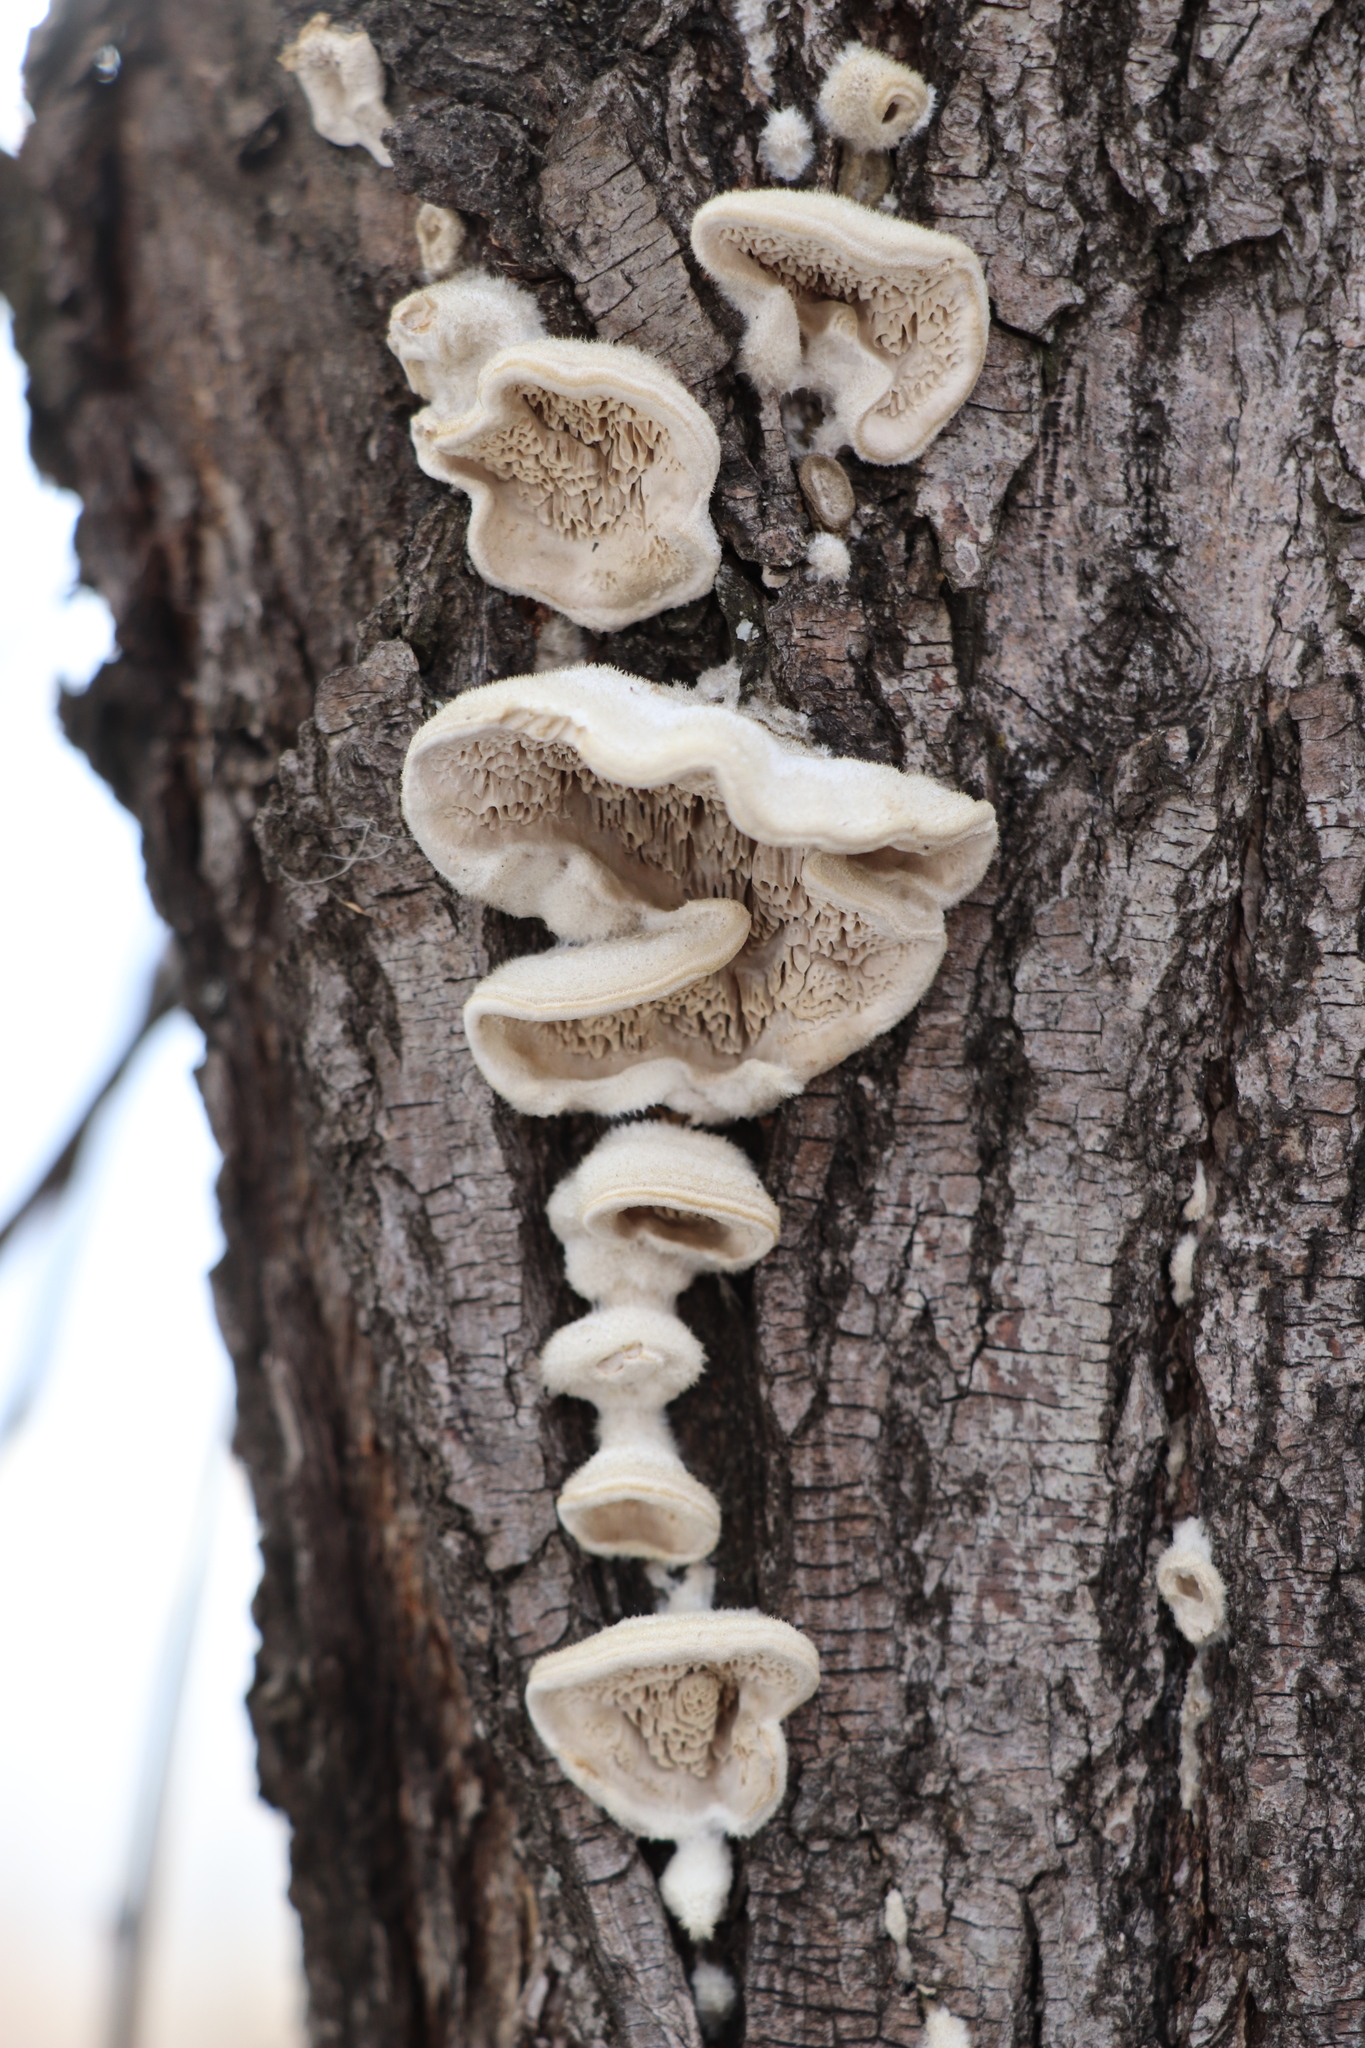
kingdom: Fungi
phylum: Basidiomycota
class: Agaricomycetes
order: Polyporales
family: Cerrenaceae
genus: Cerrena
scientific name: Cerrena unicolor
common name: Mossy maze polypore
